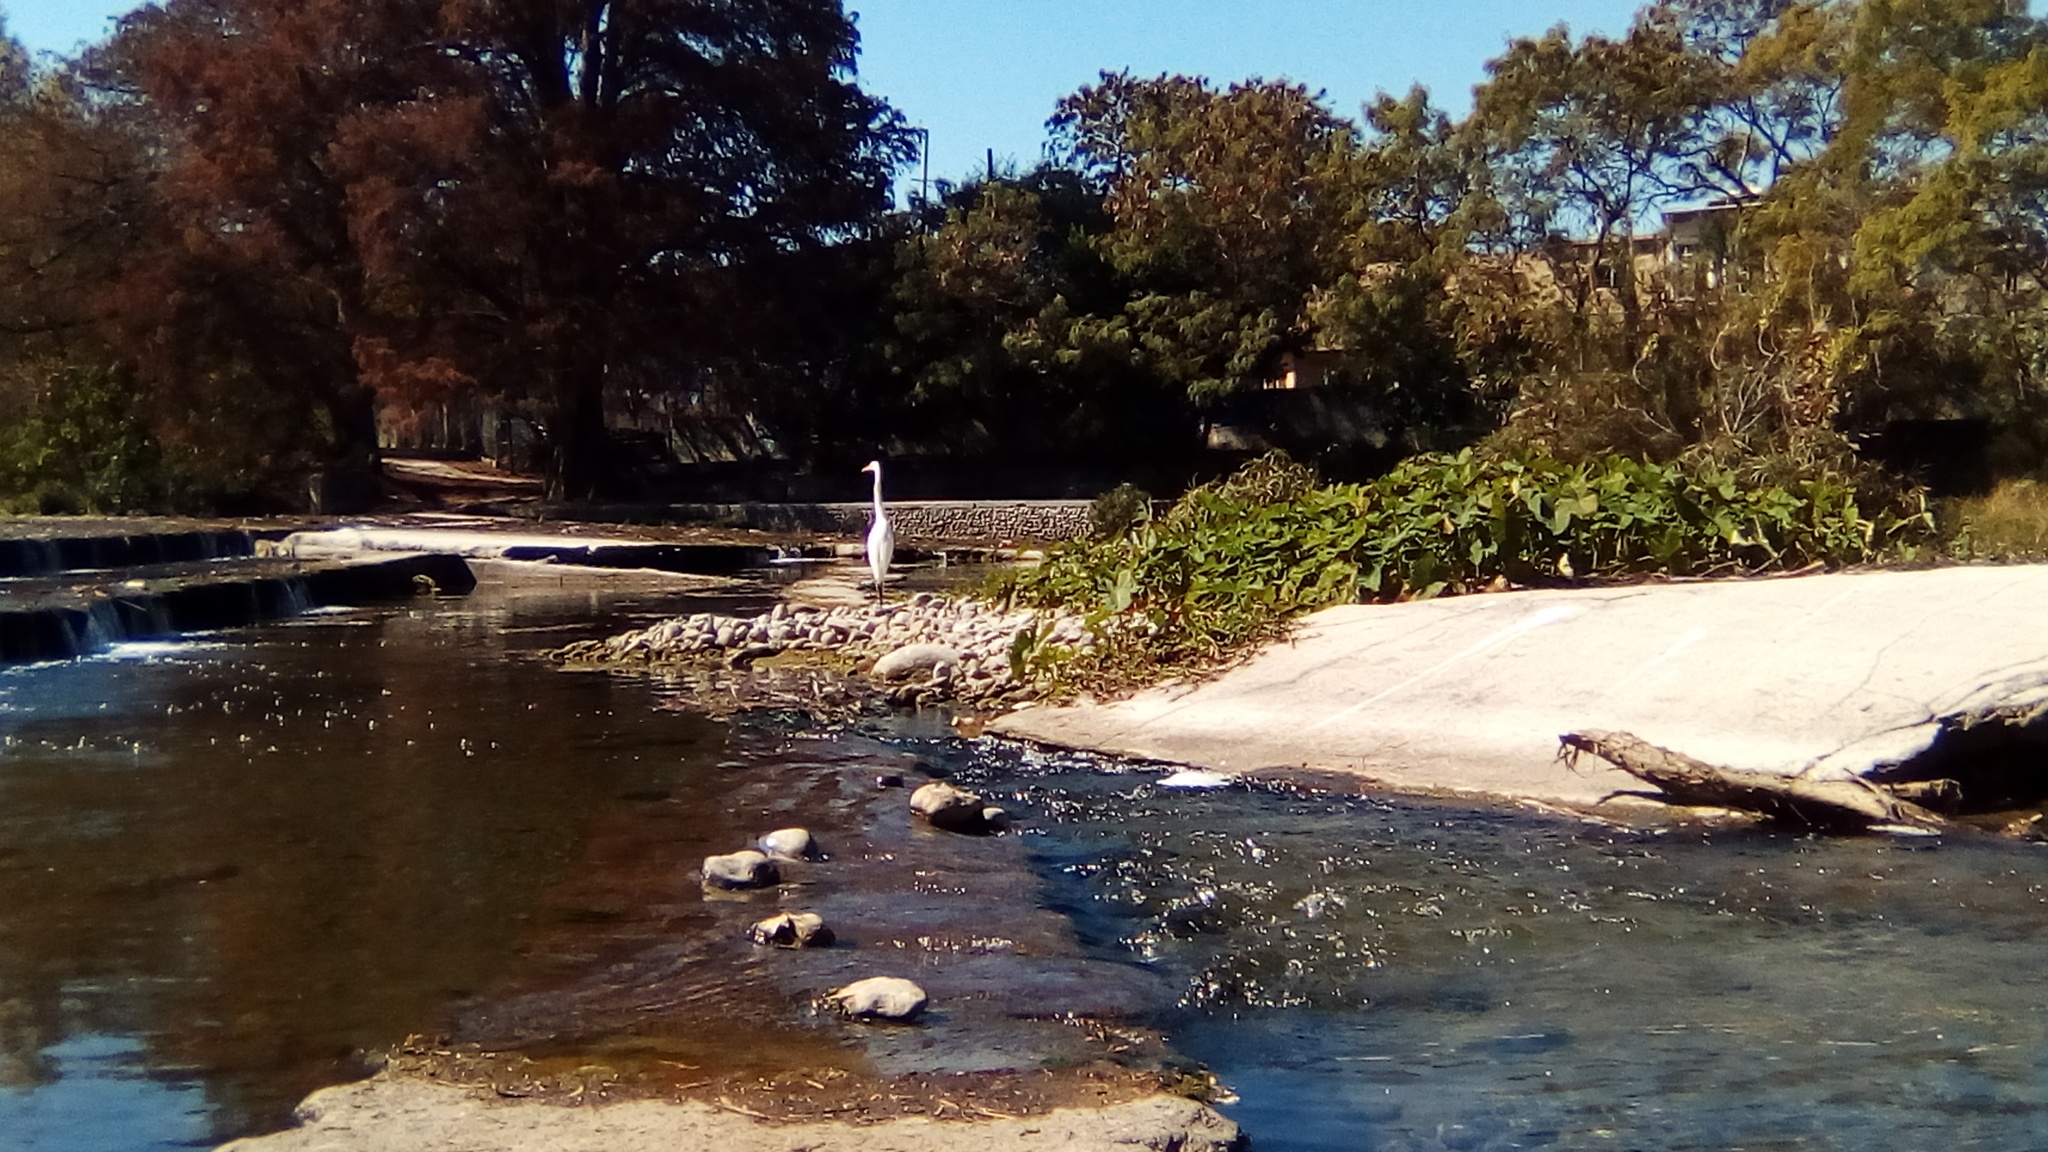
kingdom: Animalia
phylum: Chordata
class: Aves
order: Pelecaniformes
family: Ardeidae
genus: Ardea
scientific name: Ardea alba
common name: Great egret
